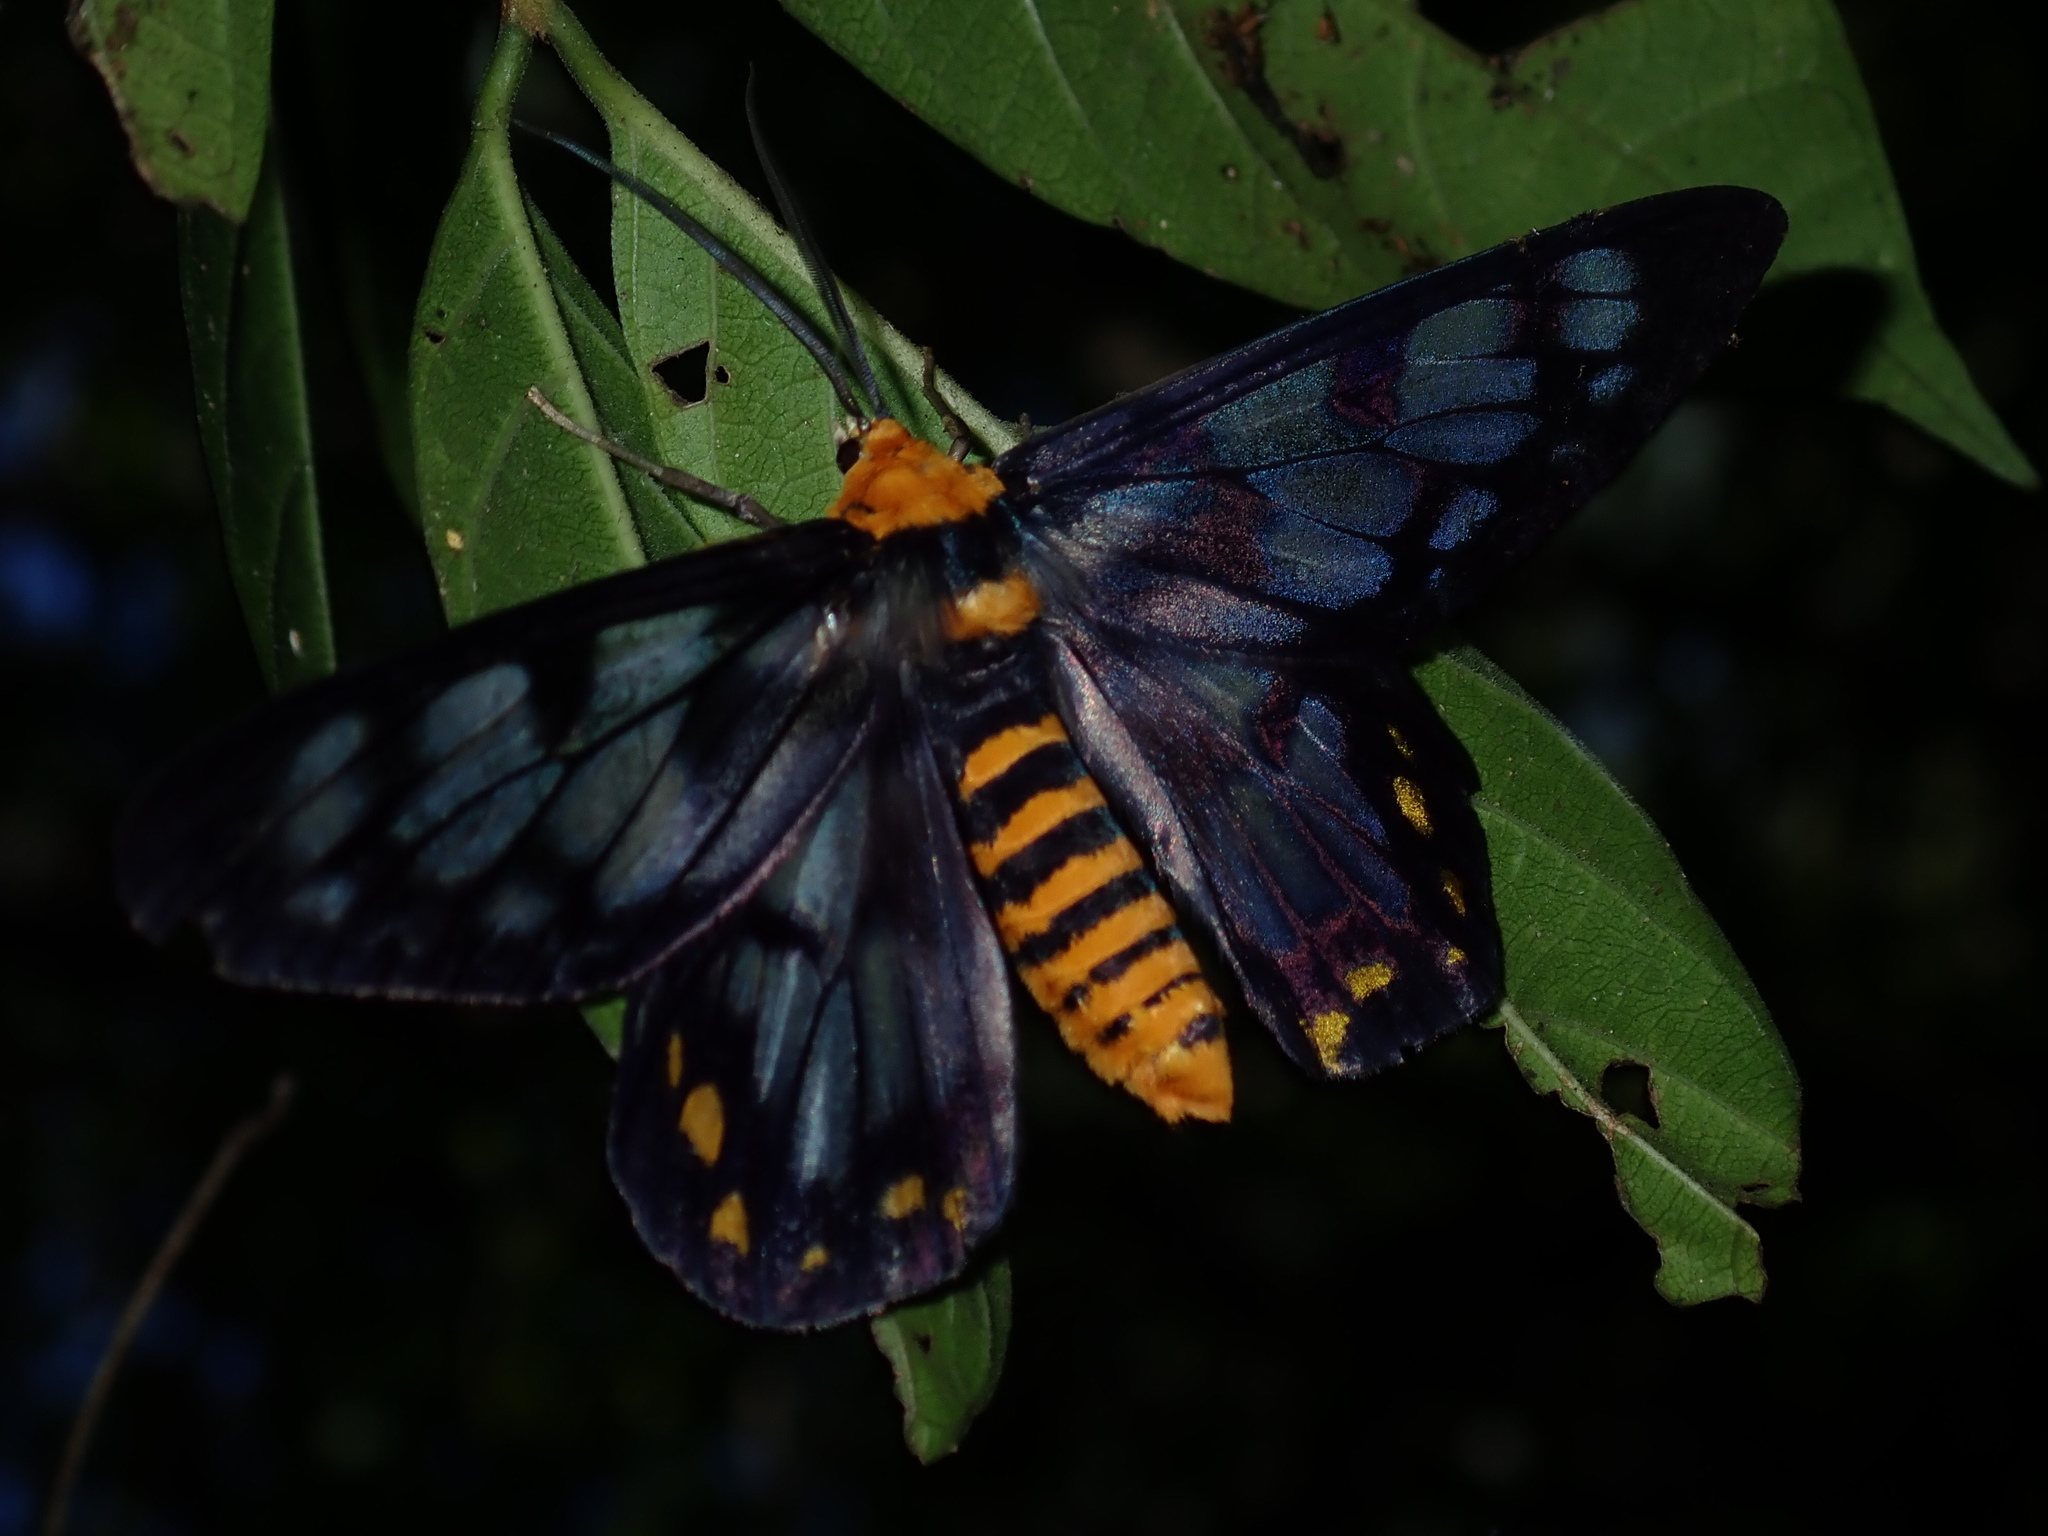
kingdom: Animalia
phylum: Arthropoda
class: Insecta
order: Lepidoptera
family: Geometridae
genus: Dysphania
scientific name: Dysphania numana
